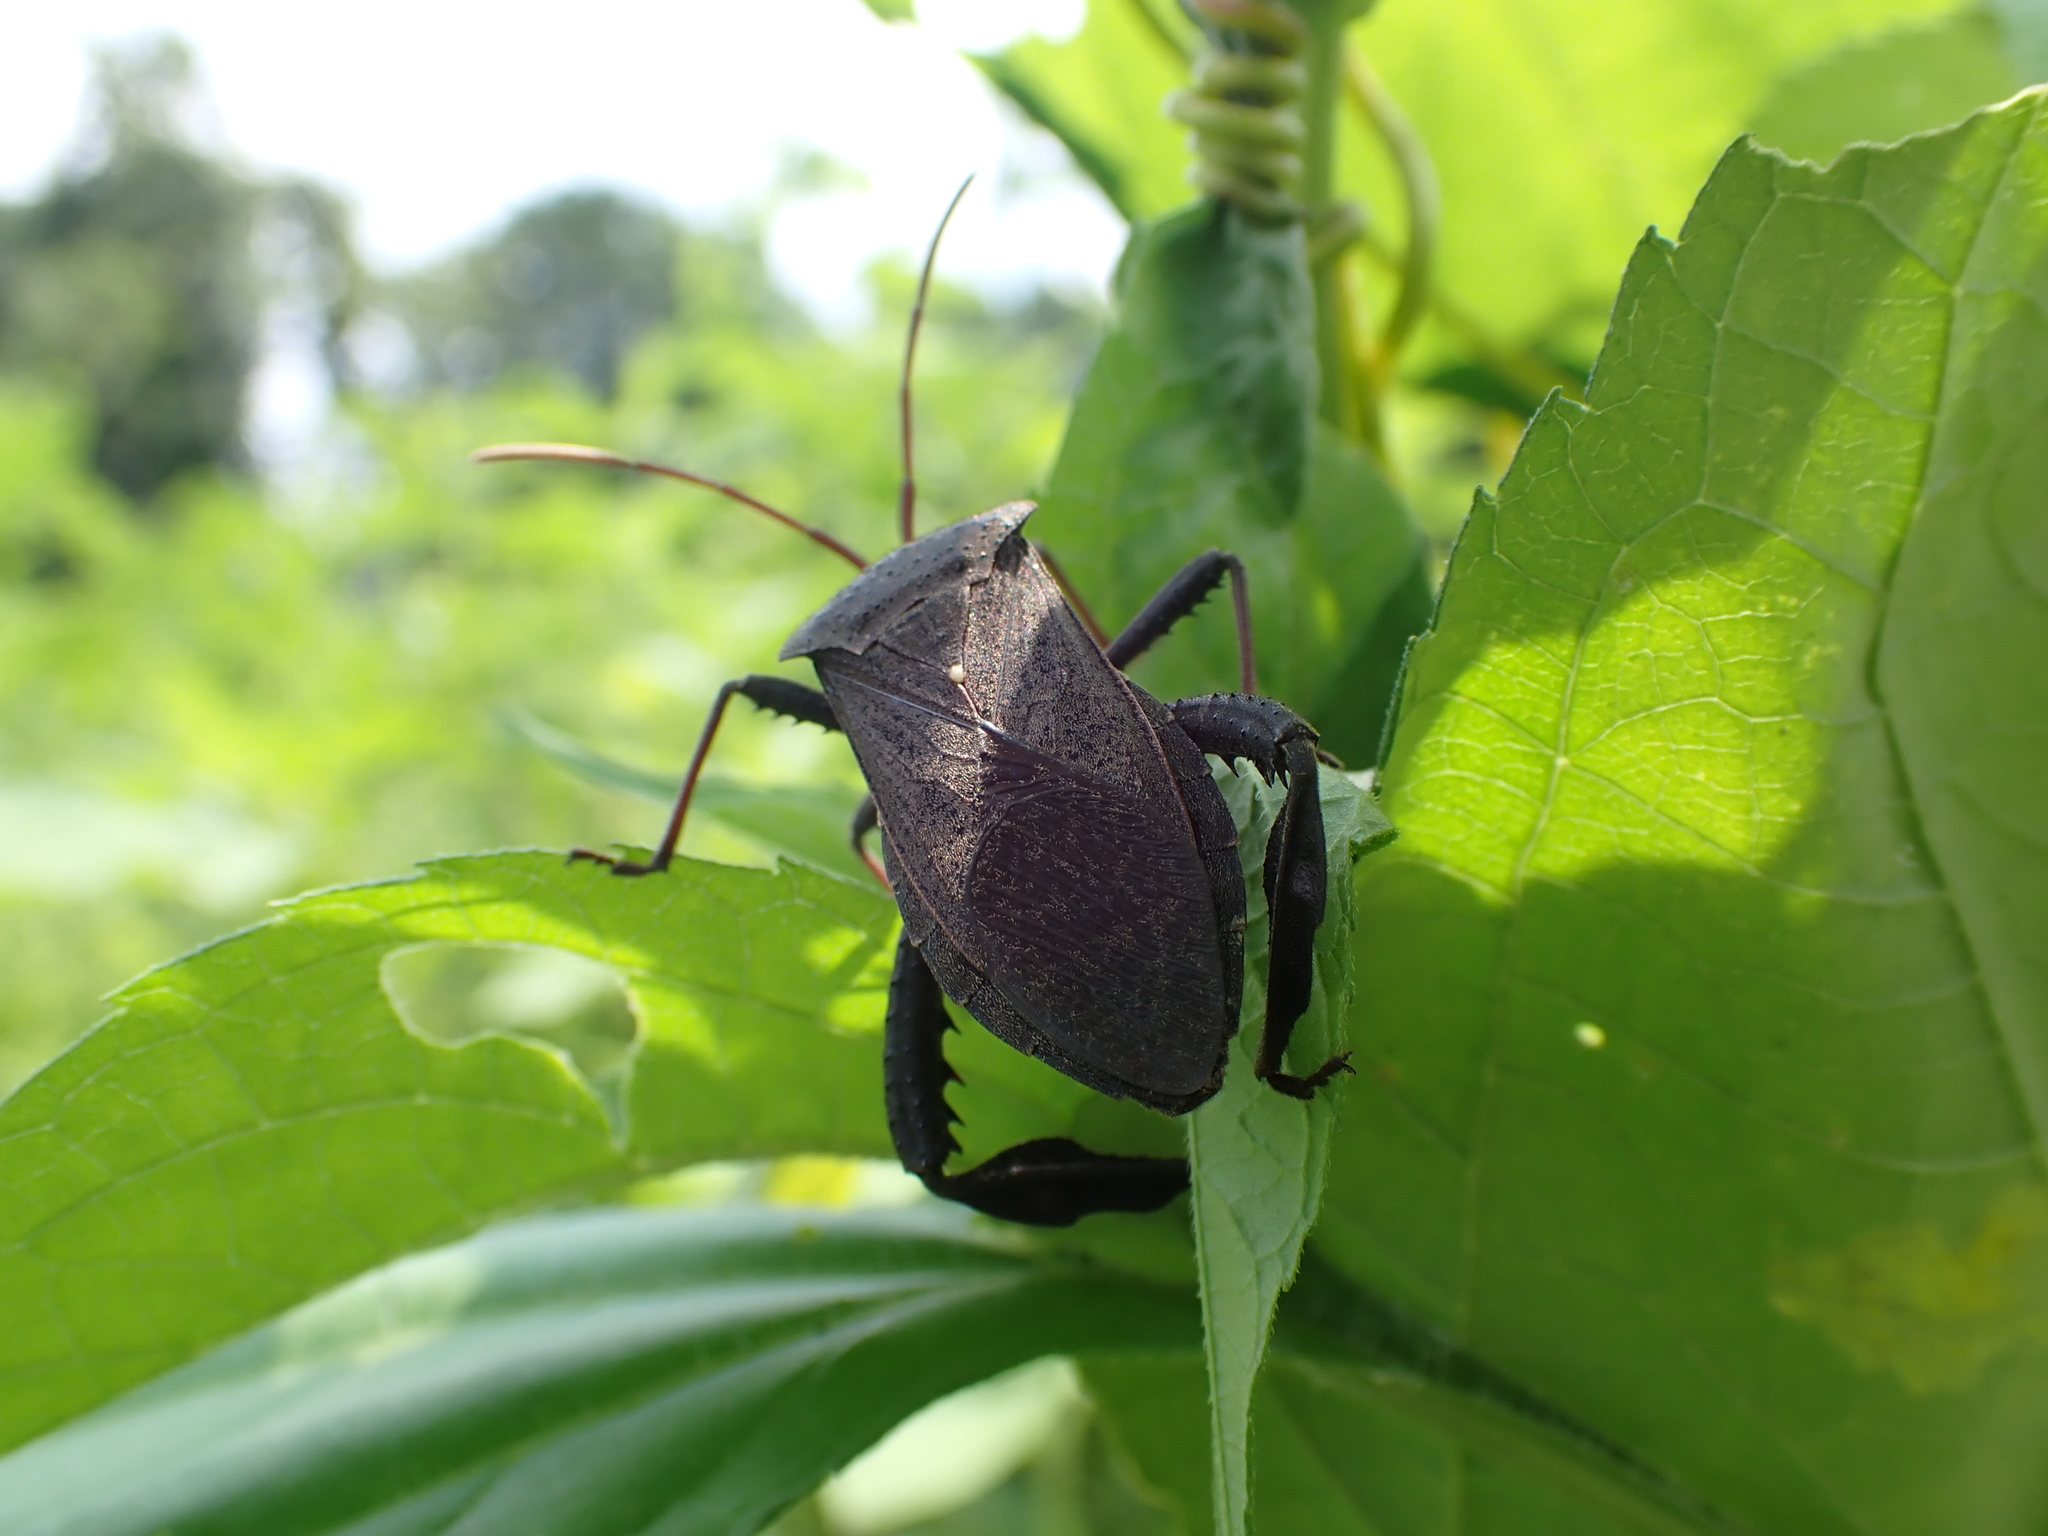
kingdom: Animalia
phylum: Arthropoda
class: Insecta
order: Hemiptera
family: Coreidae
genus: Acanthocephala
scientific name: Acanthocephala femorata
